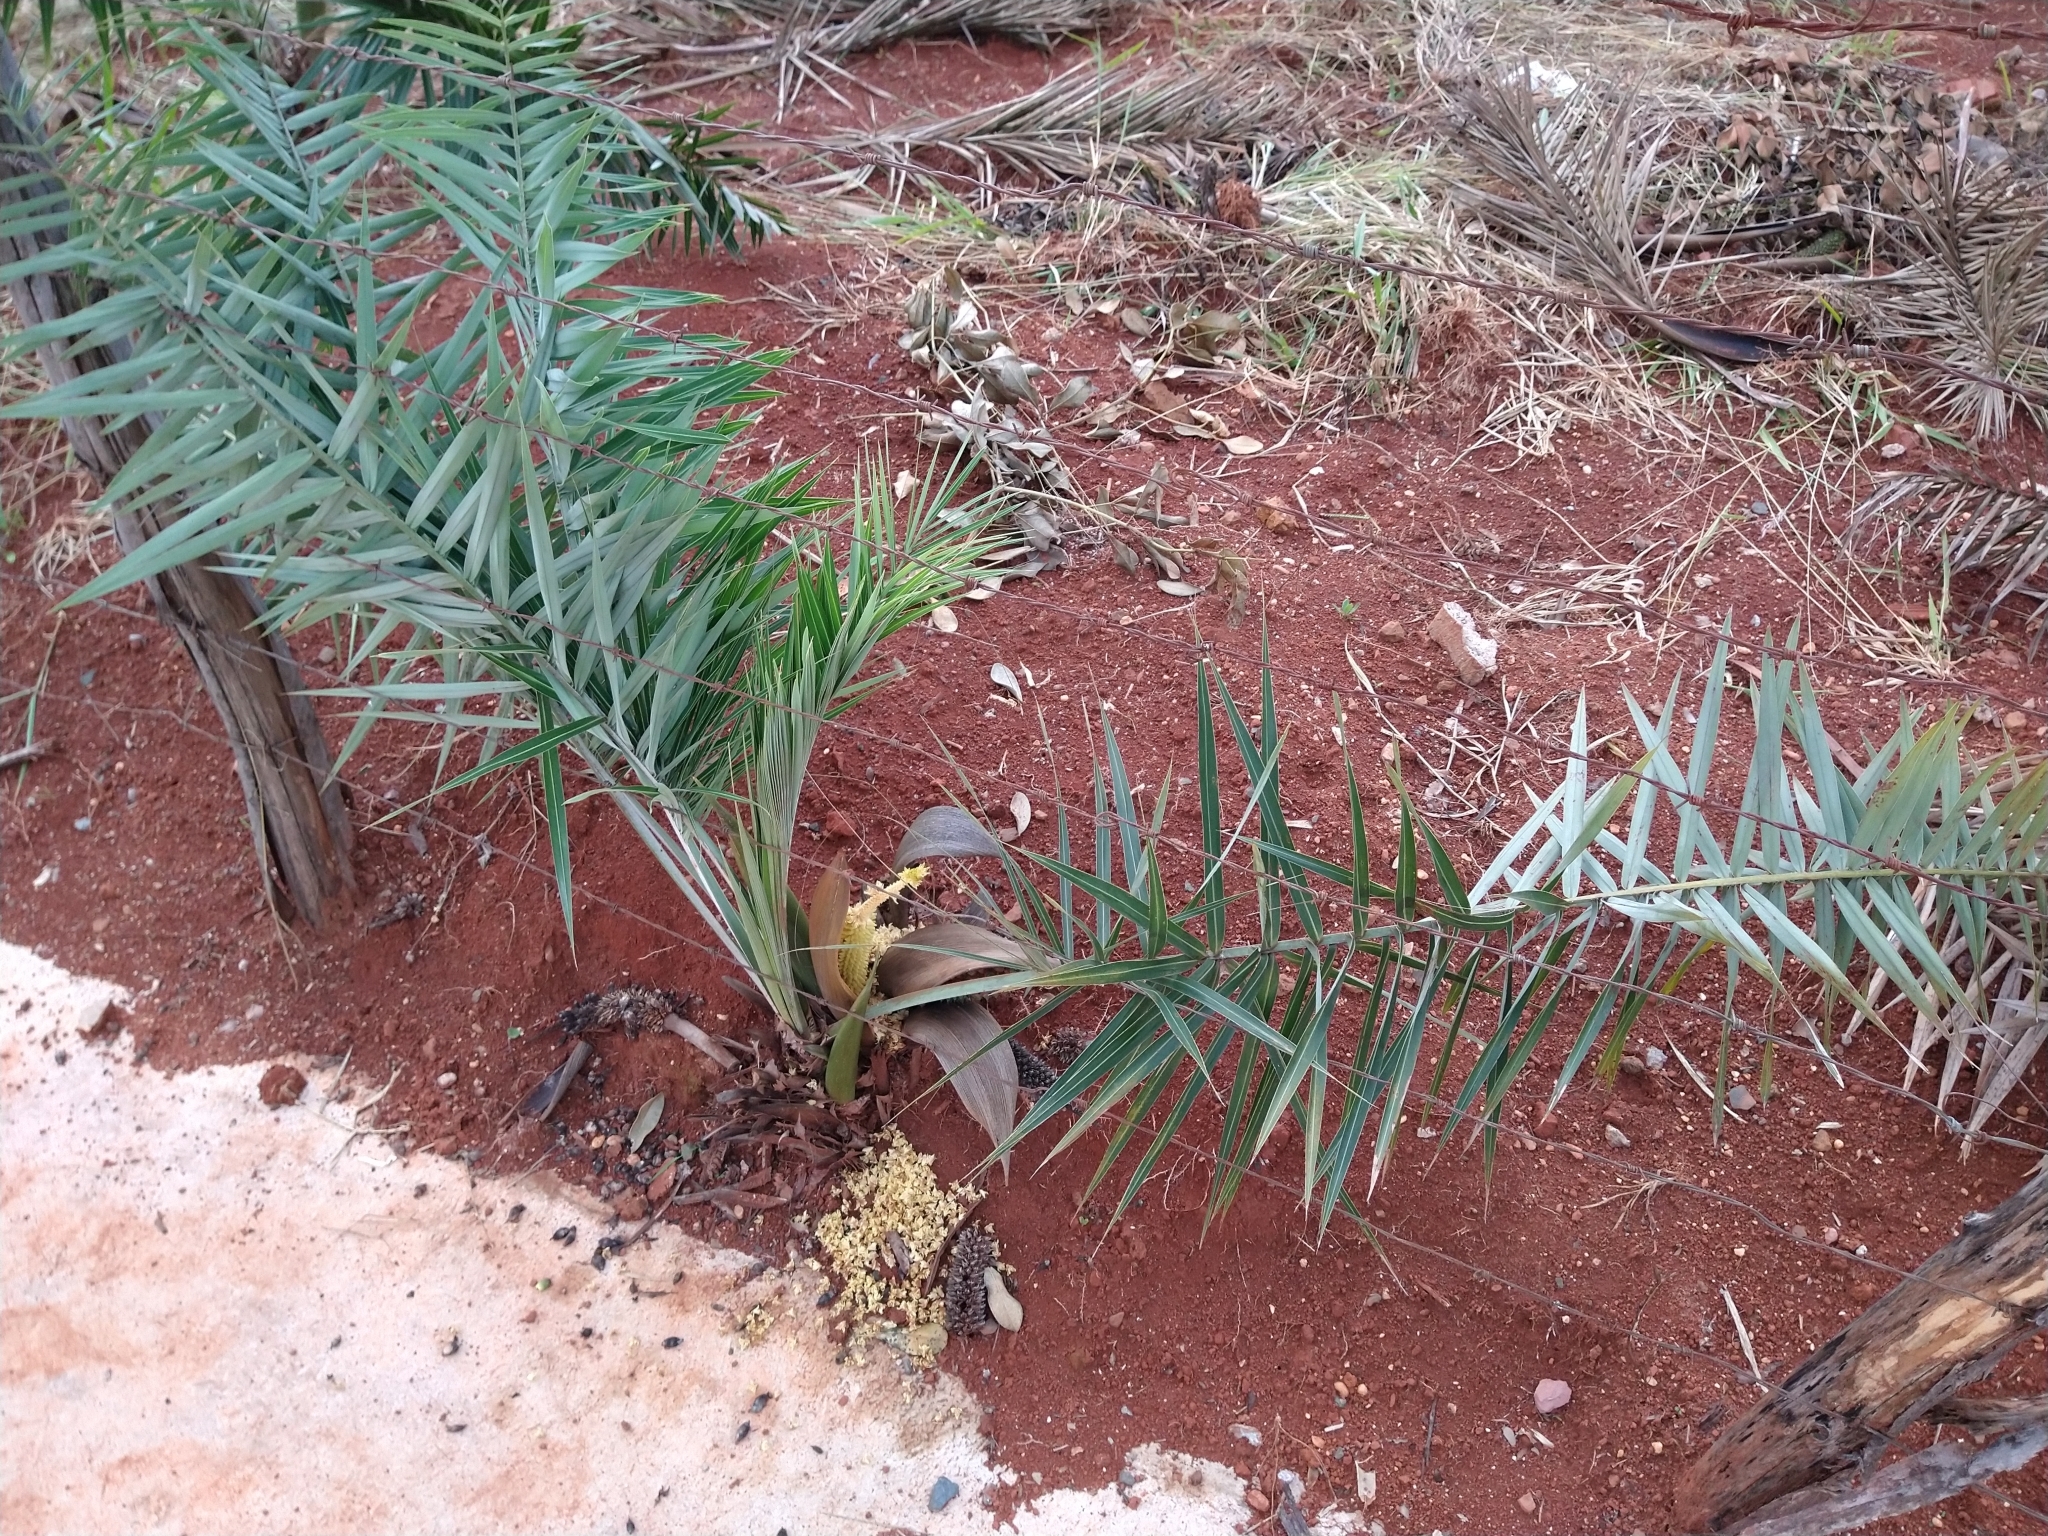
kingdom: Plantae
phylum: Tracheophyta
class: Liliopsida
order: Arecales
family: Arecaceae
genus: Allagoptera
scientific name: Allagoptera robusta
